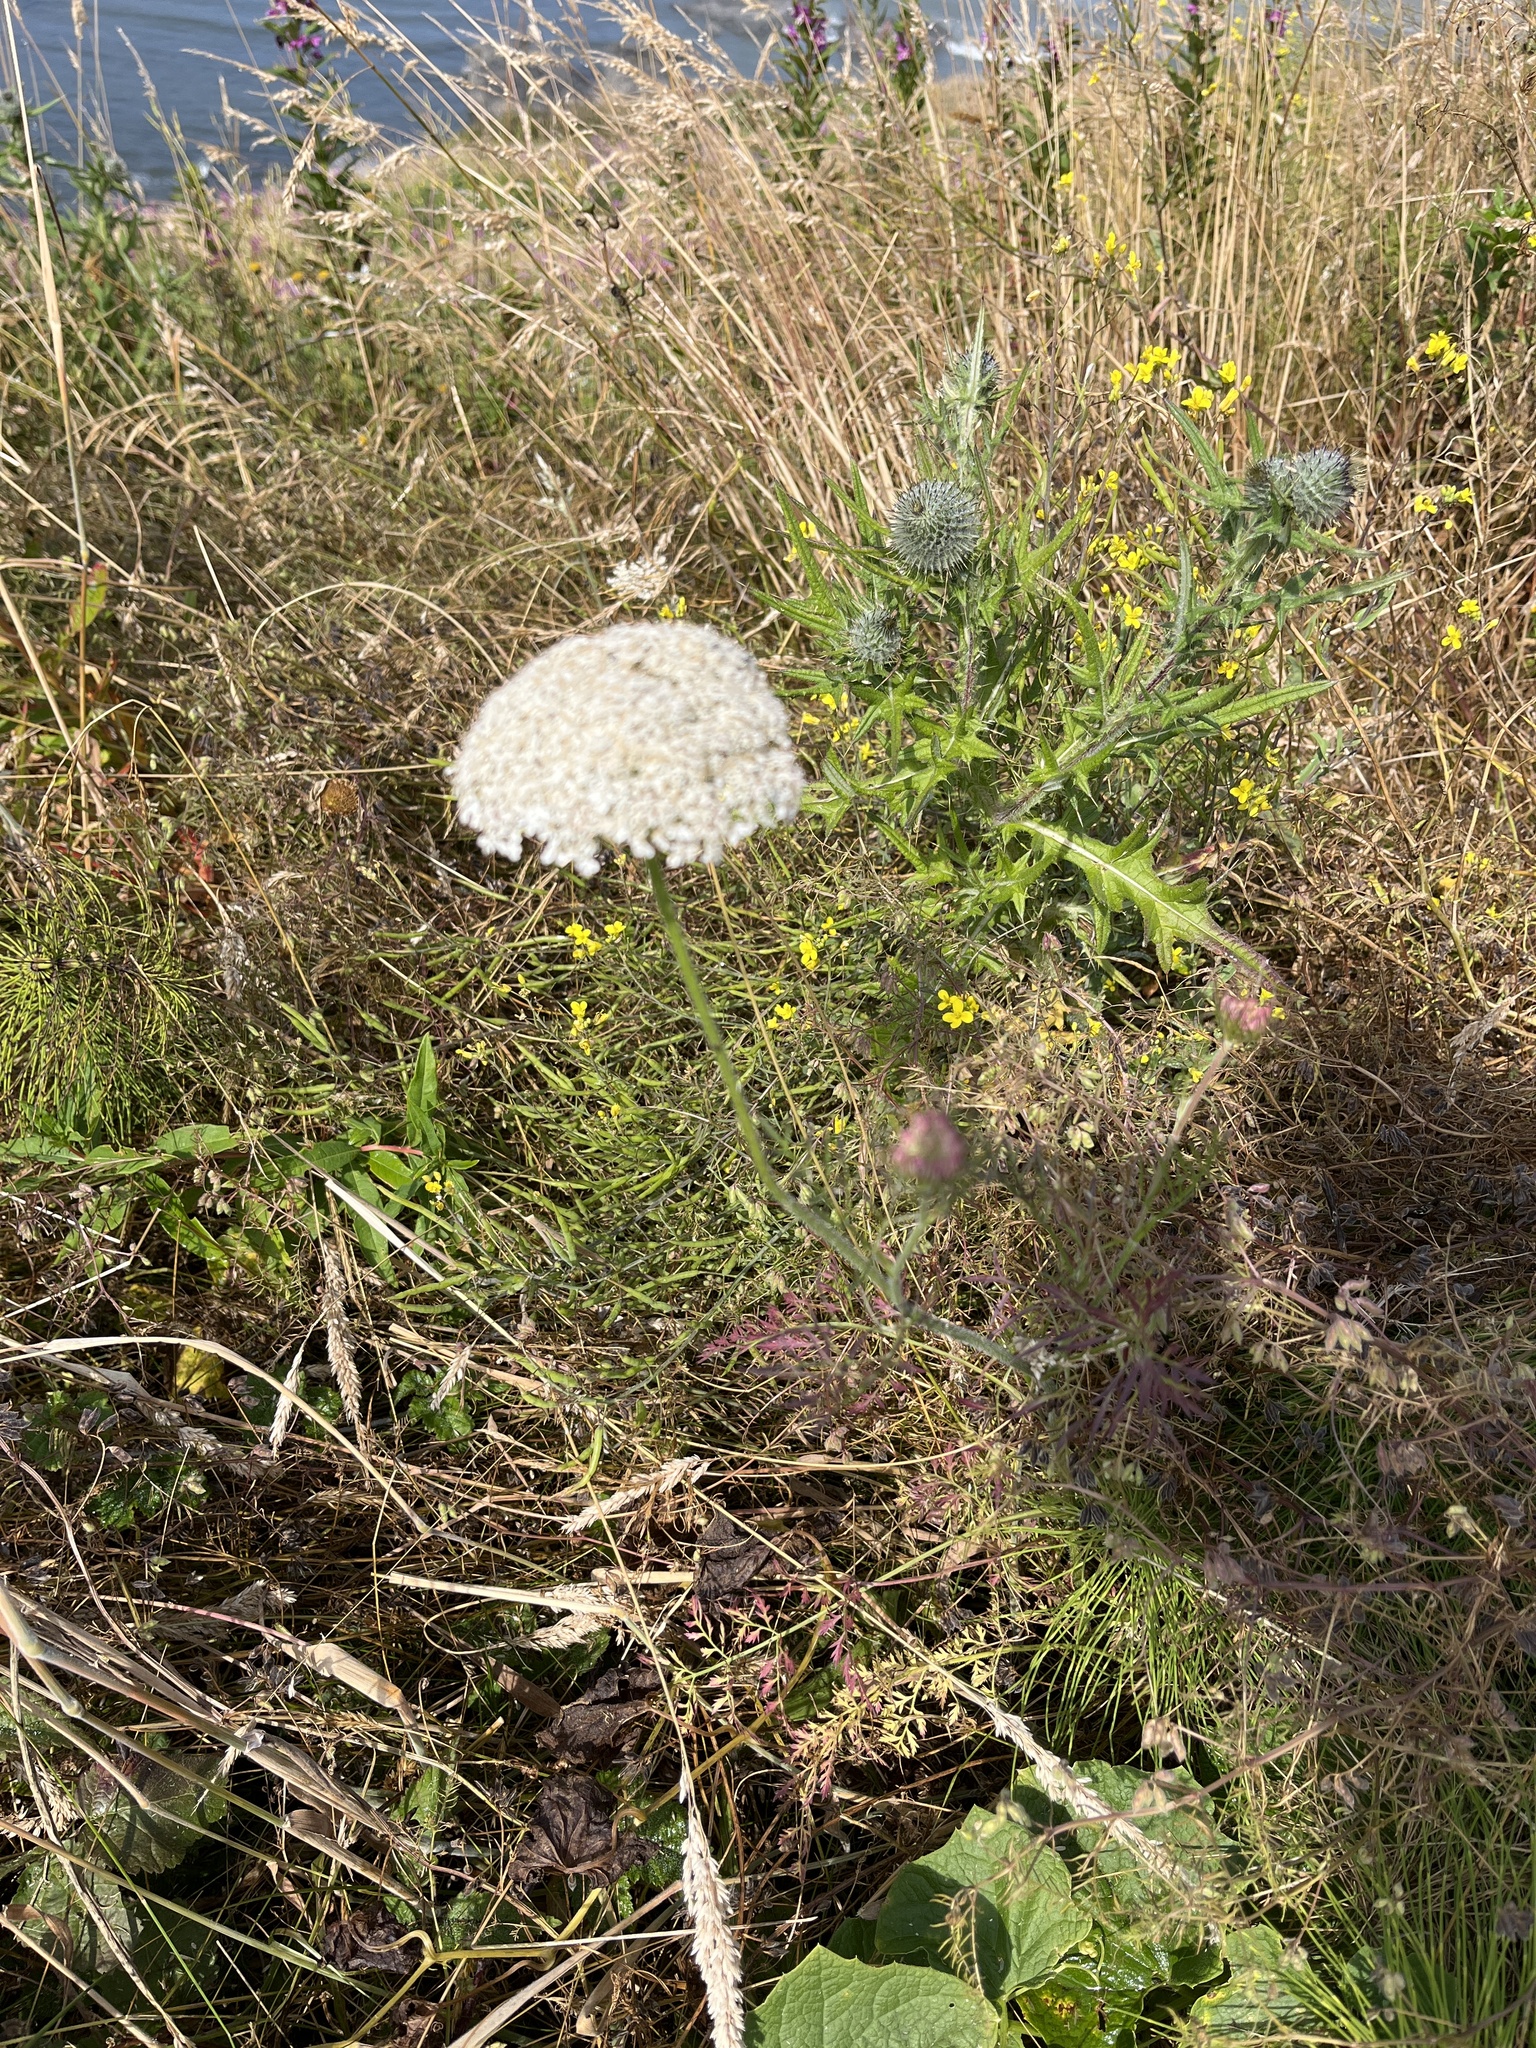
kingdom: Plantae
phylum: Tracheophyta
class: Magnoliopsida
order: Apiales
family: Apiaceae
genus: Daucus
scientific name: Daucus carota
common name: Wild carrot
